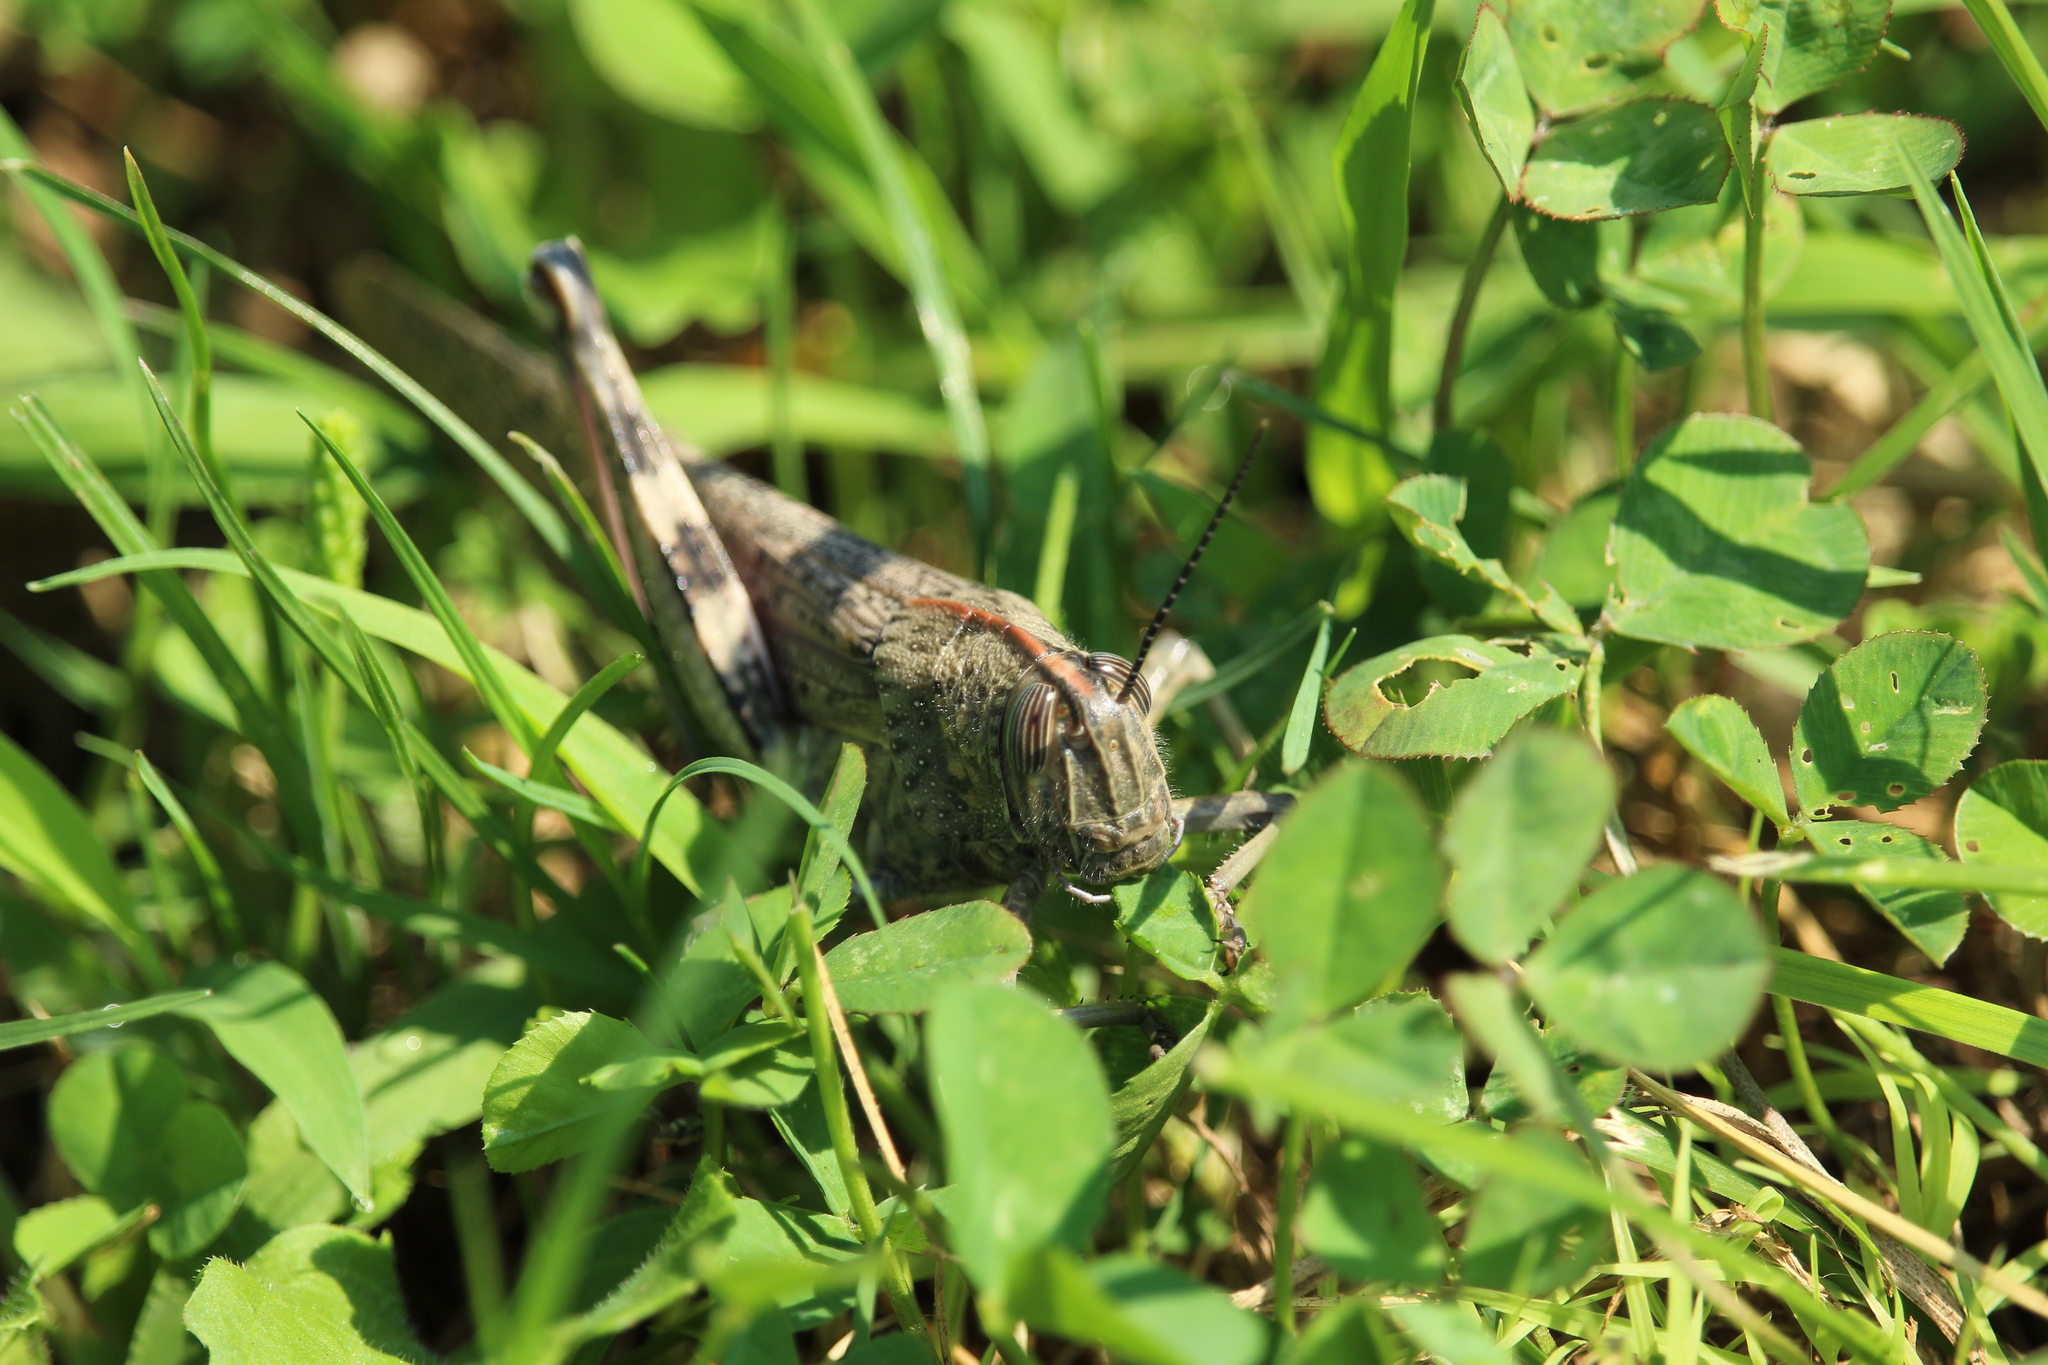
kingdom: Animalia
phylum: Arthropoda
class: Insecta
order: Orthoptera
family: Acrididae
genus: Anacridium
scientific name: Anacridium aegyptium
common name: Egyptian grasshopper
